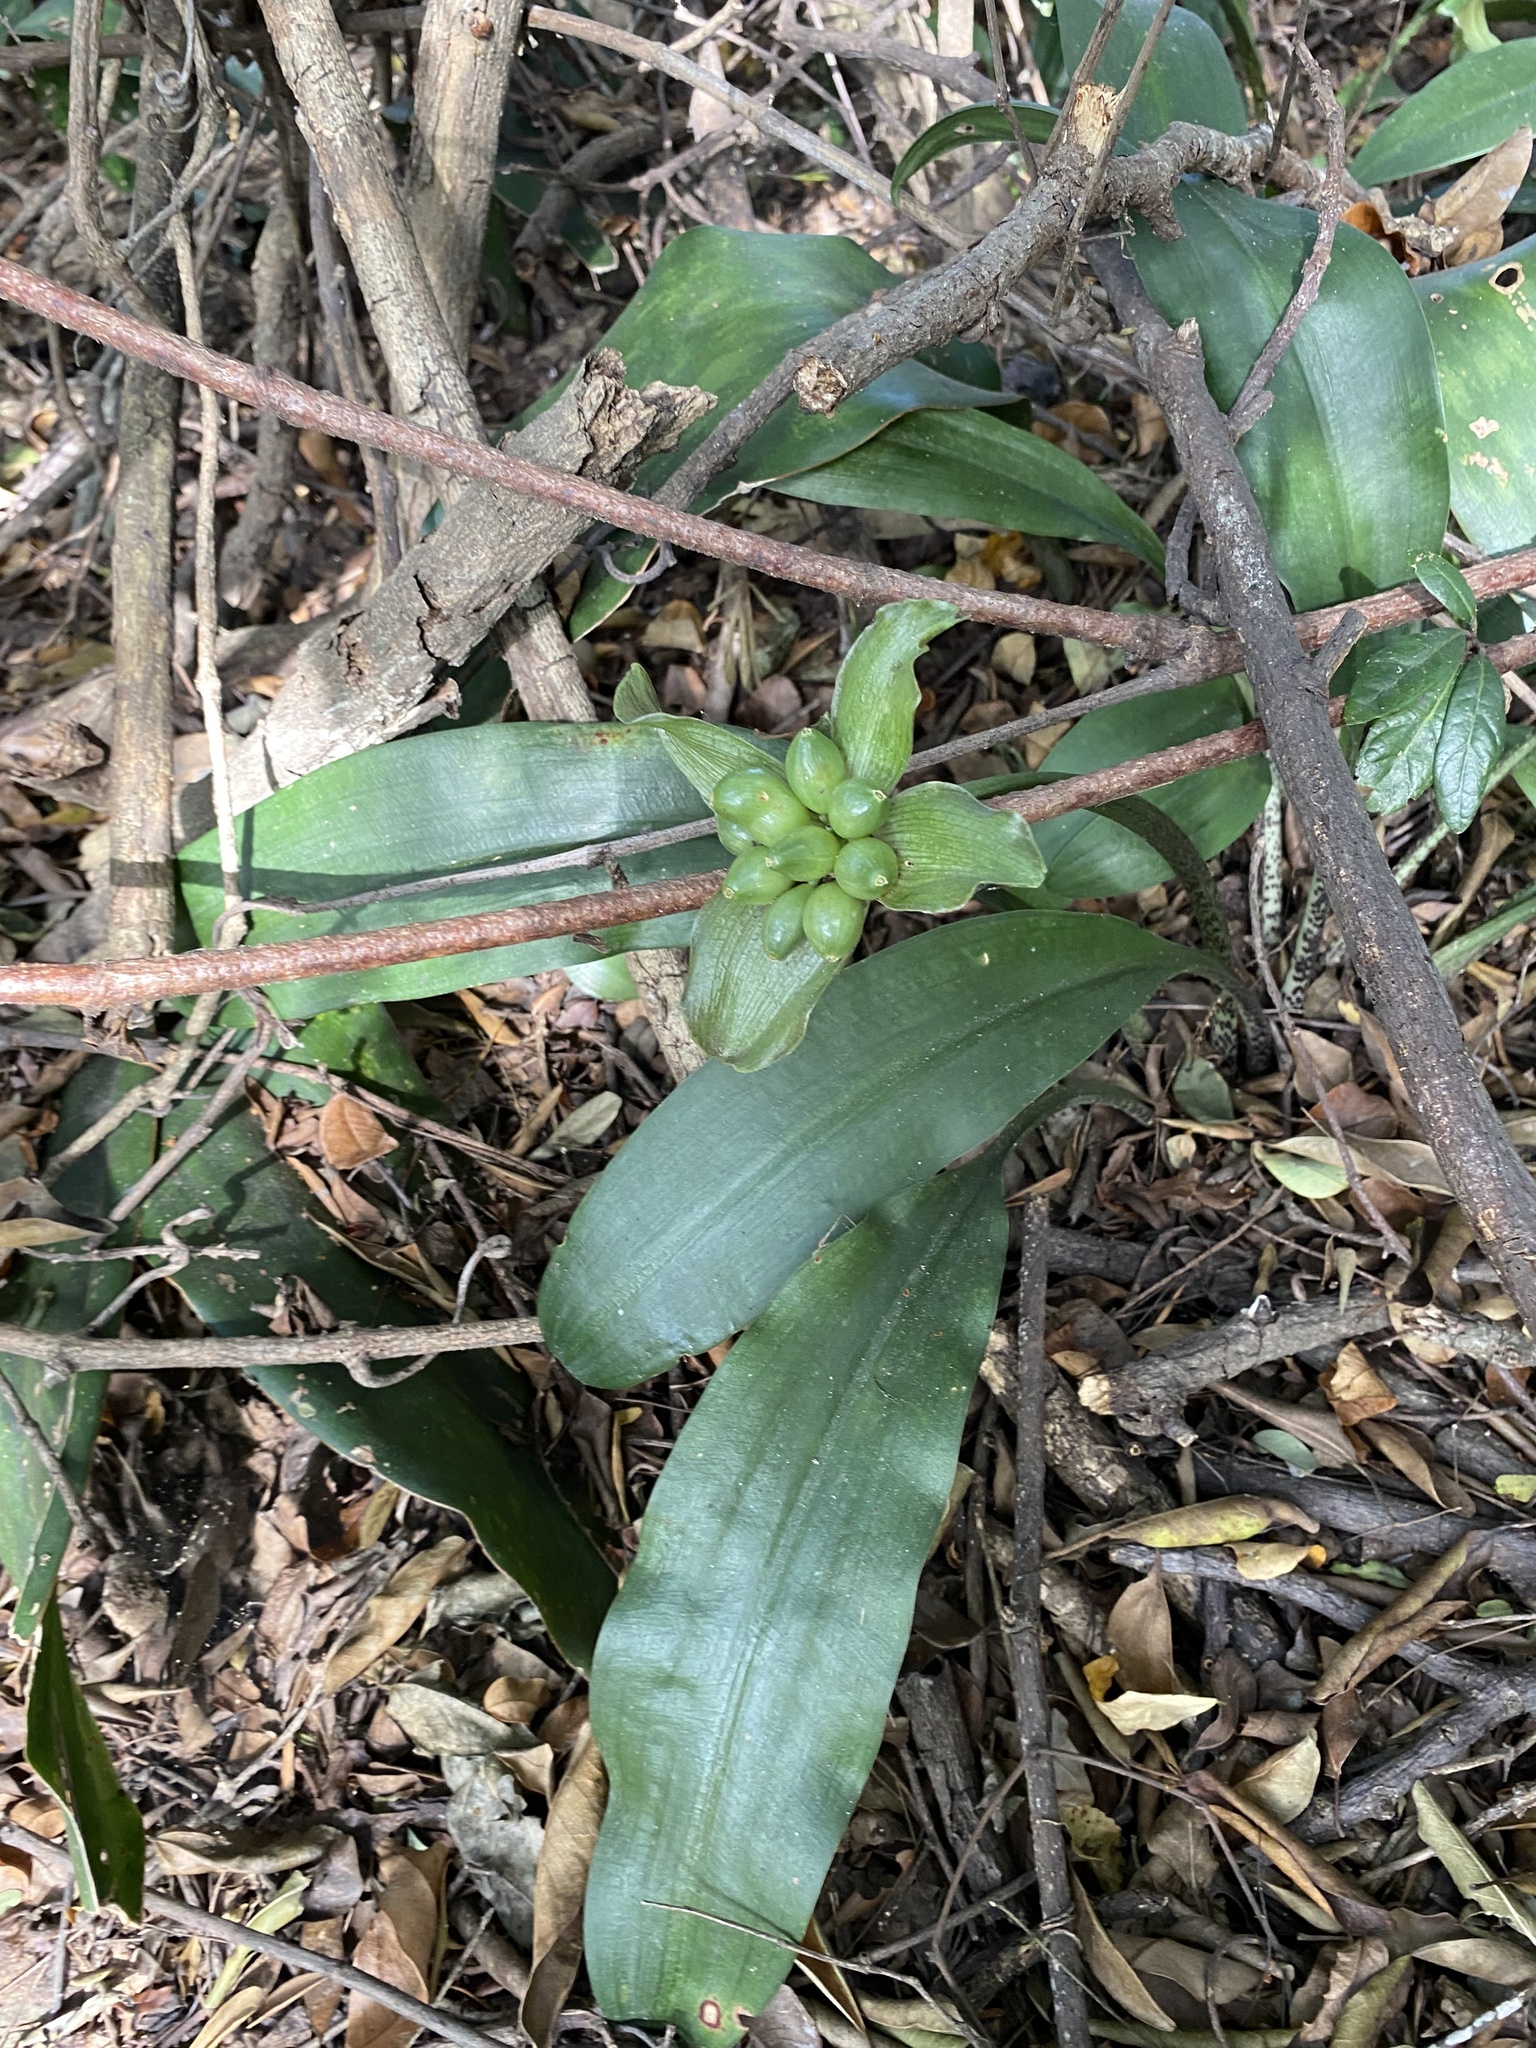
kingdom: Plantae
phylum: Tracheophyta
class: Liliopsida
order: Asparagales
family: Amaryllidaceae
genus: Scadoxus
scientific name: Scadoxus membranaceus
